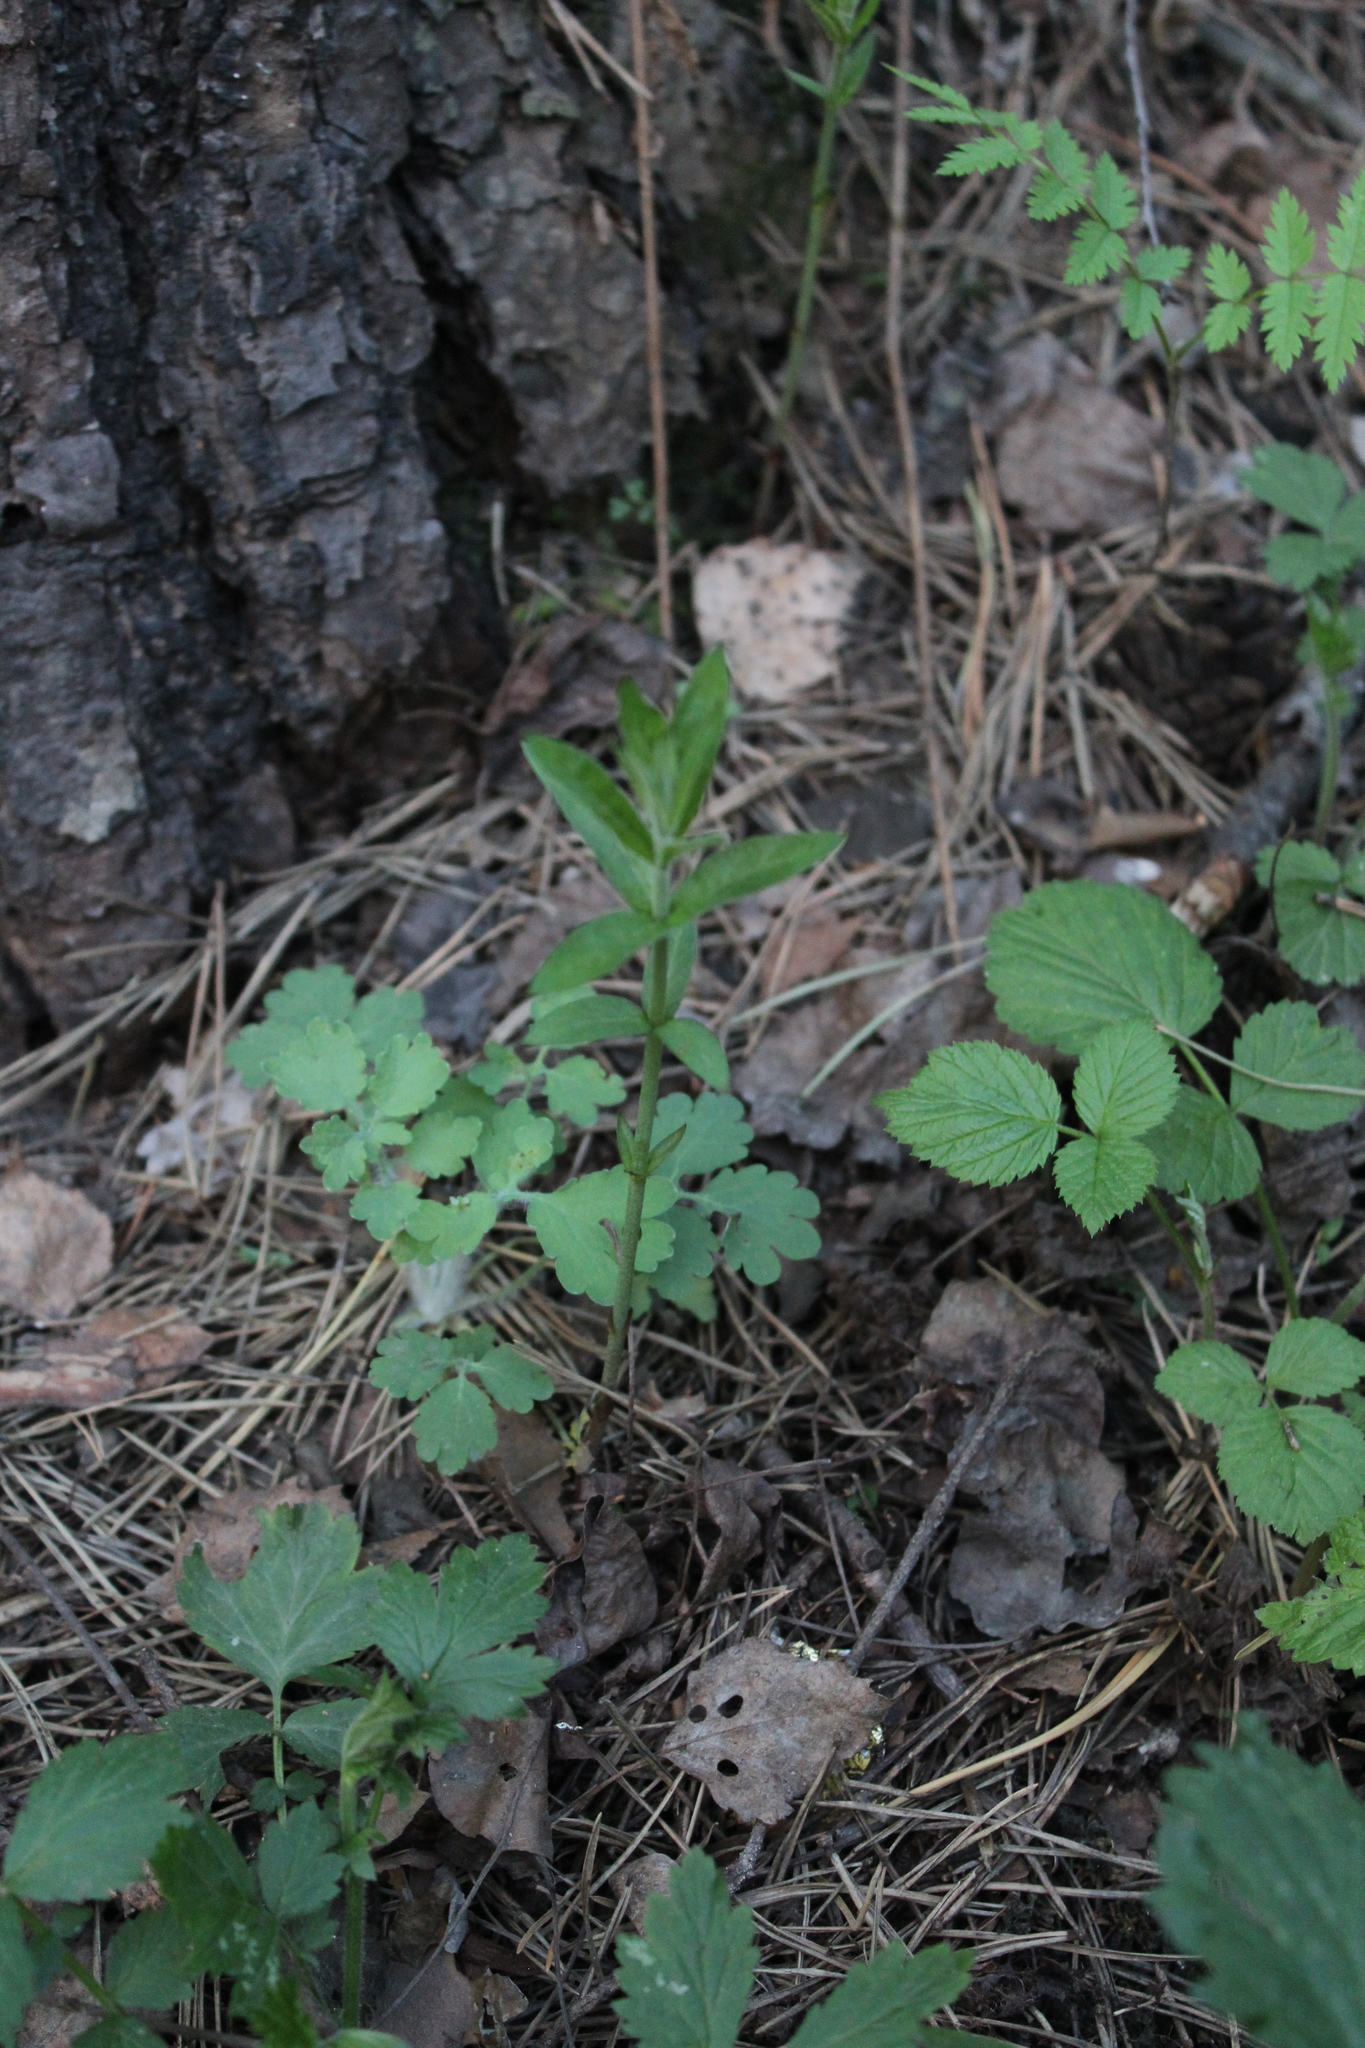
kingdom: Plantae
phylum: Tracheophyta
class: Magnoliopsida
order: Ericales
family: Primulaceae
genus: Lysimachia
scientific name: Lysimachia vulgaris
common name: Yellow loosestrife
